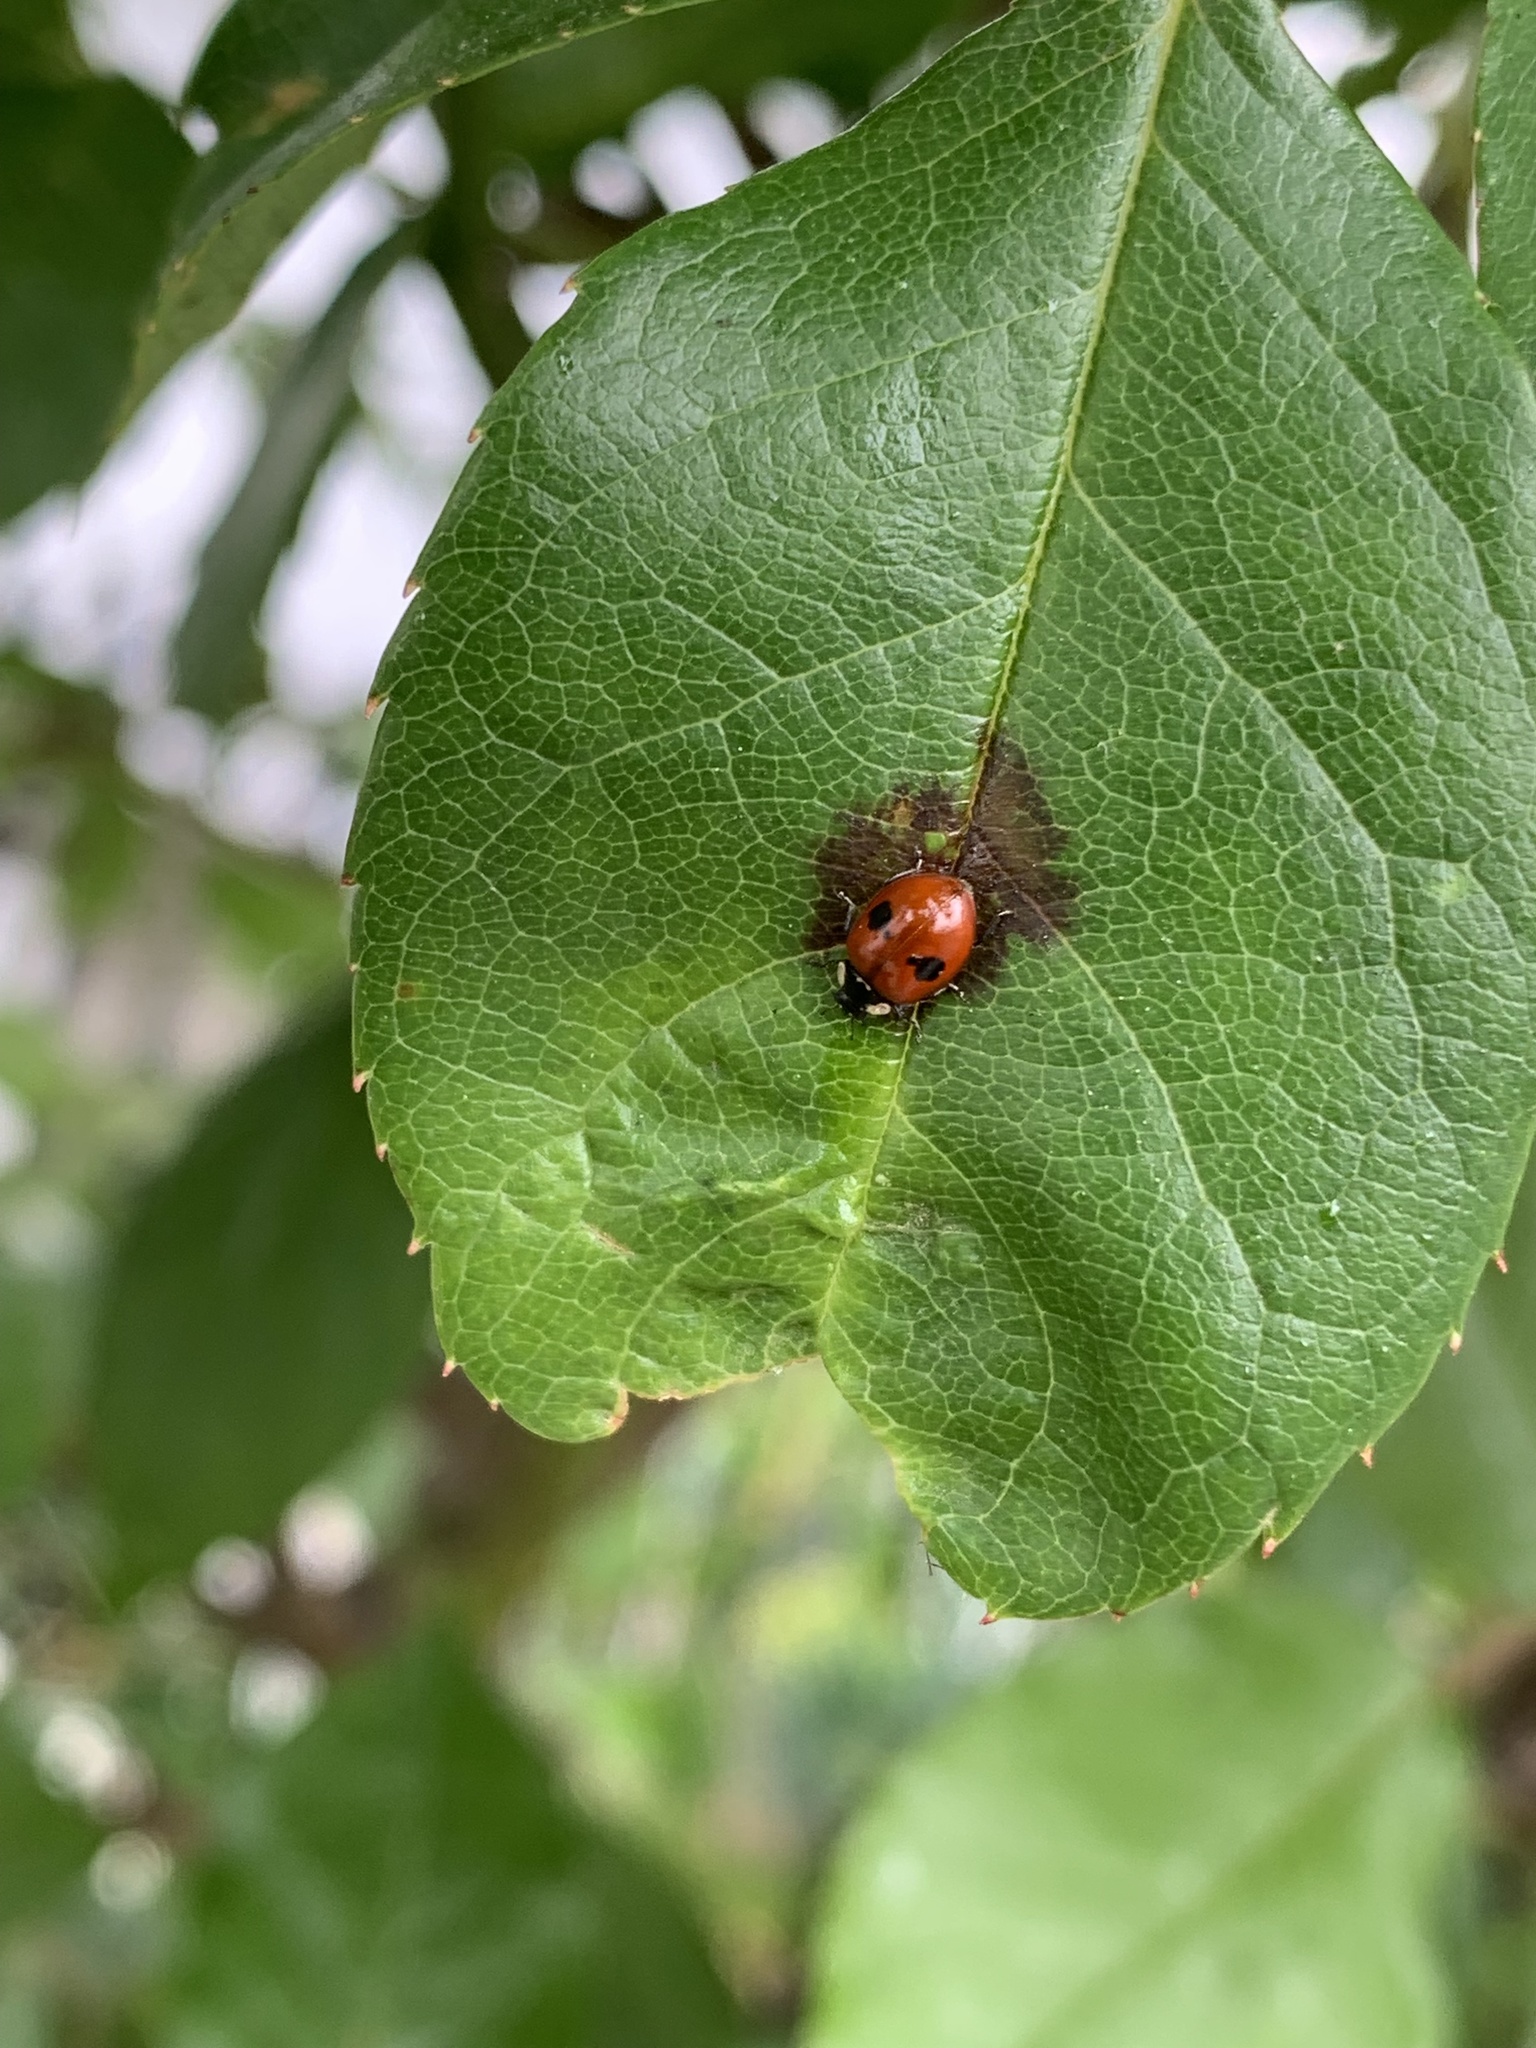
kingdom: Animalia
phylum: Arthropoda
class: Insecta
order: Coleoptera
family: Coccinellidae
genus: Adalia
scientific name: Adalia bipunctata
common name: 2-spot ladybird
